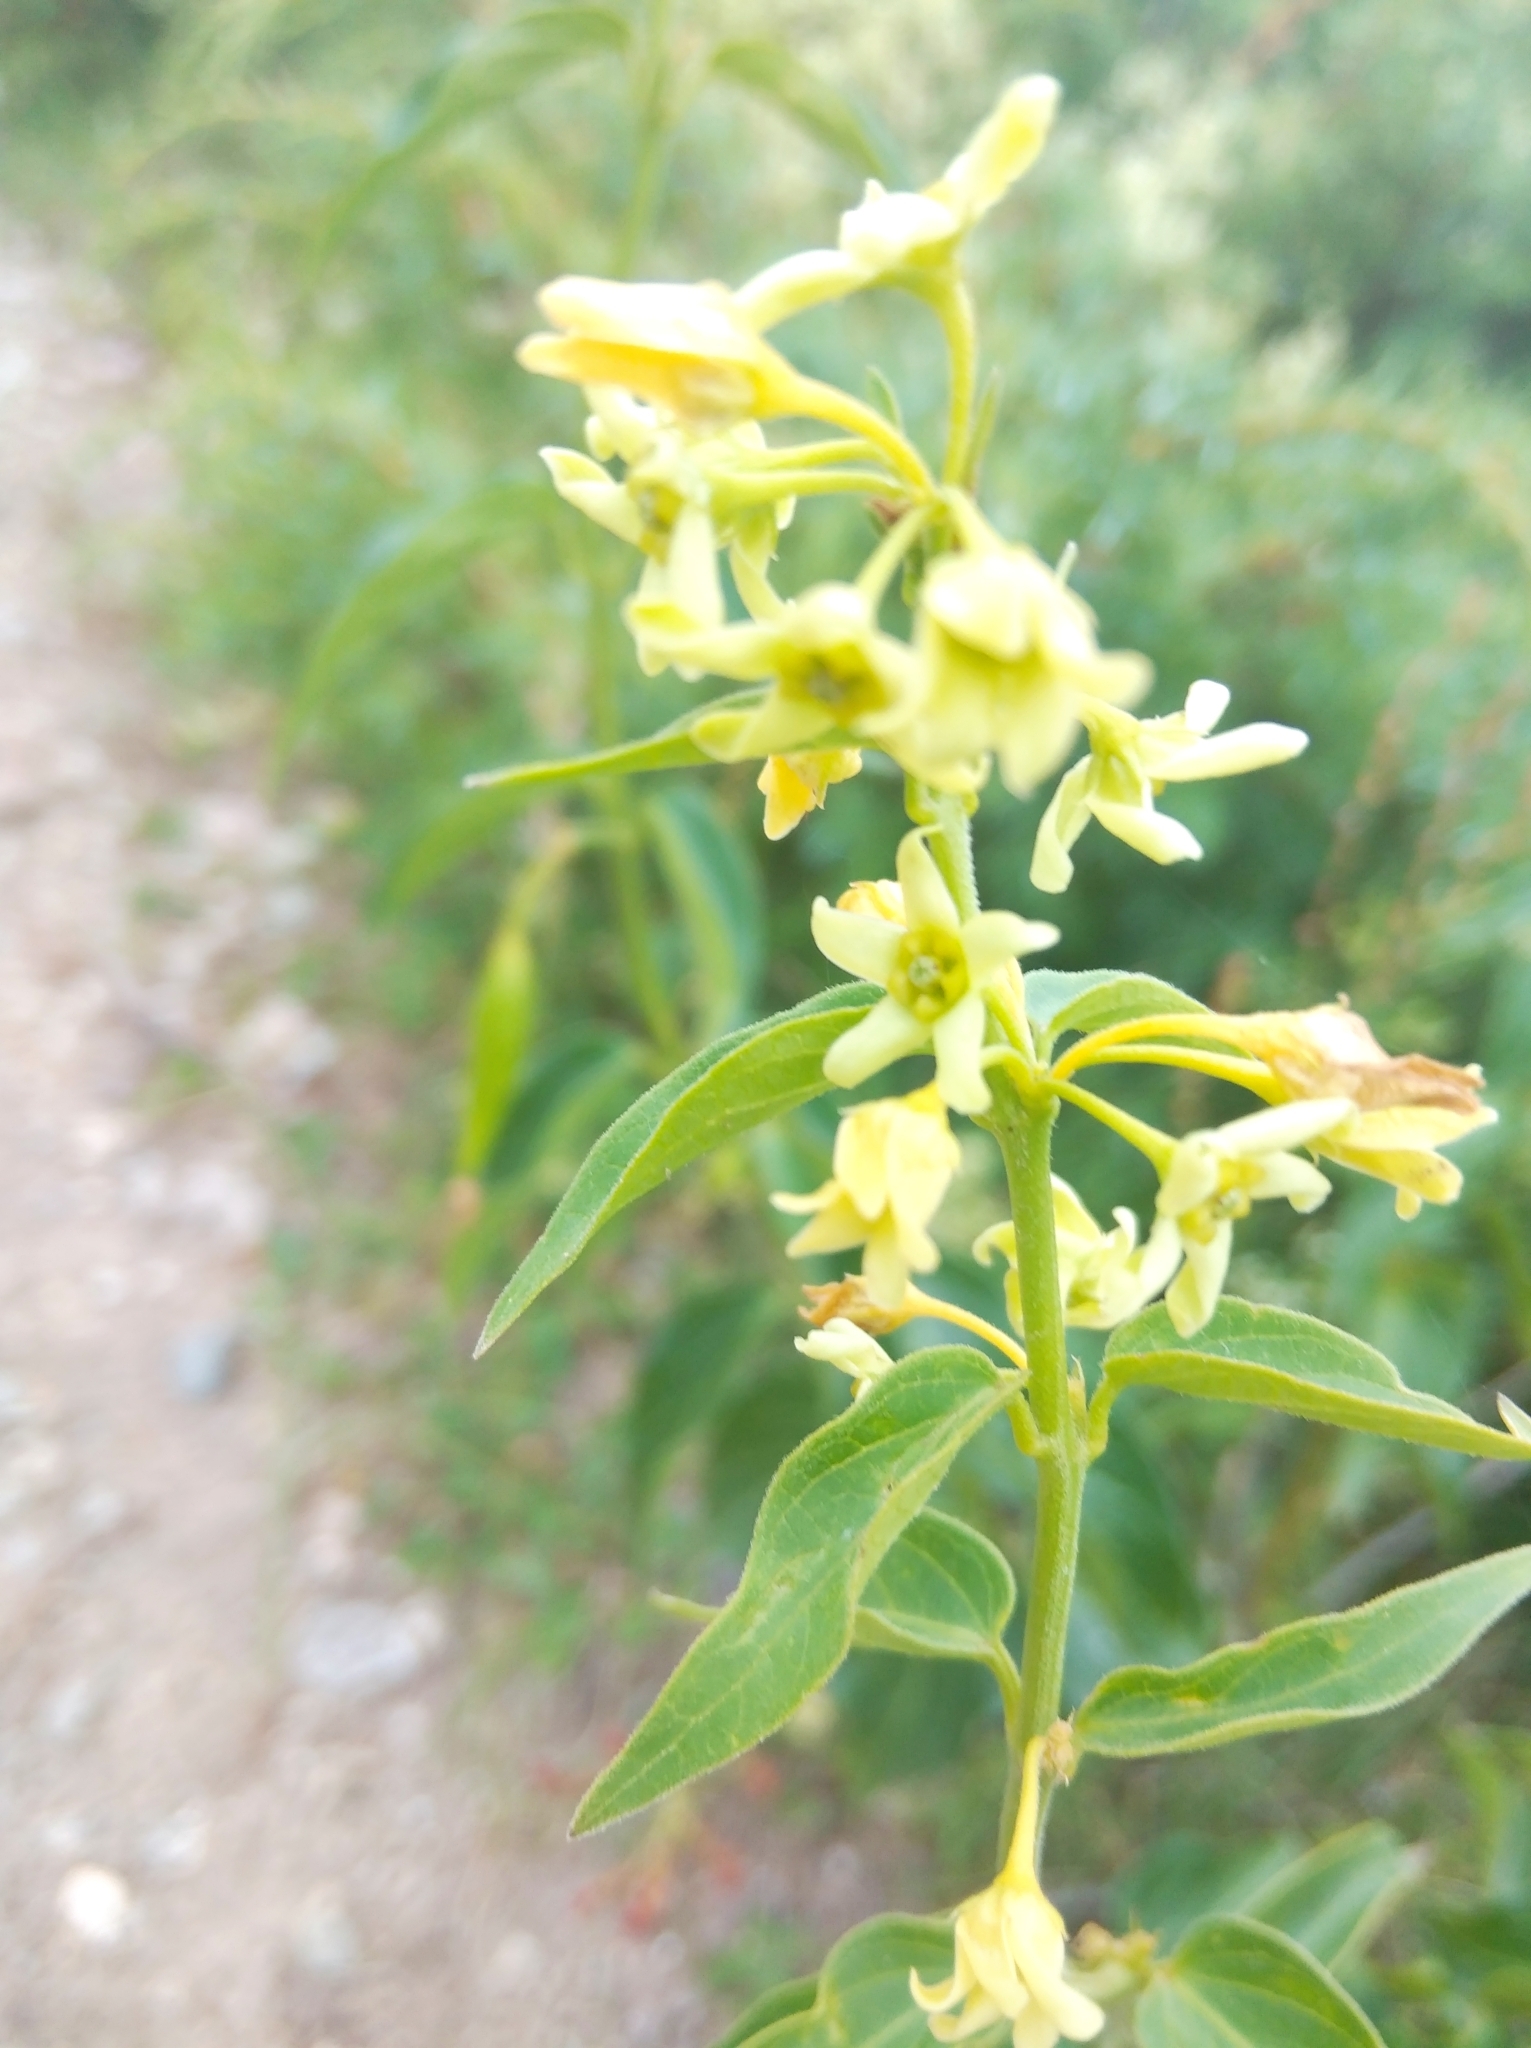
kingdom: Plantae
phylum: Tracheophyta
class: Magnoliopsida
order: Gentianales
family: Apocynaceae
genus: Vincetoxicum
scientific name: Vincetoxicum hirundinaria
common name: White swallowwort
